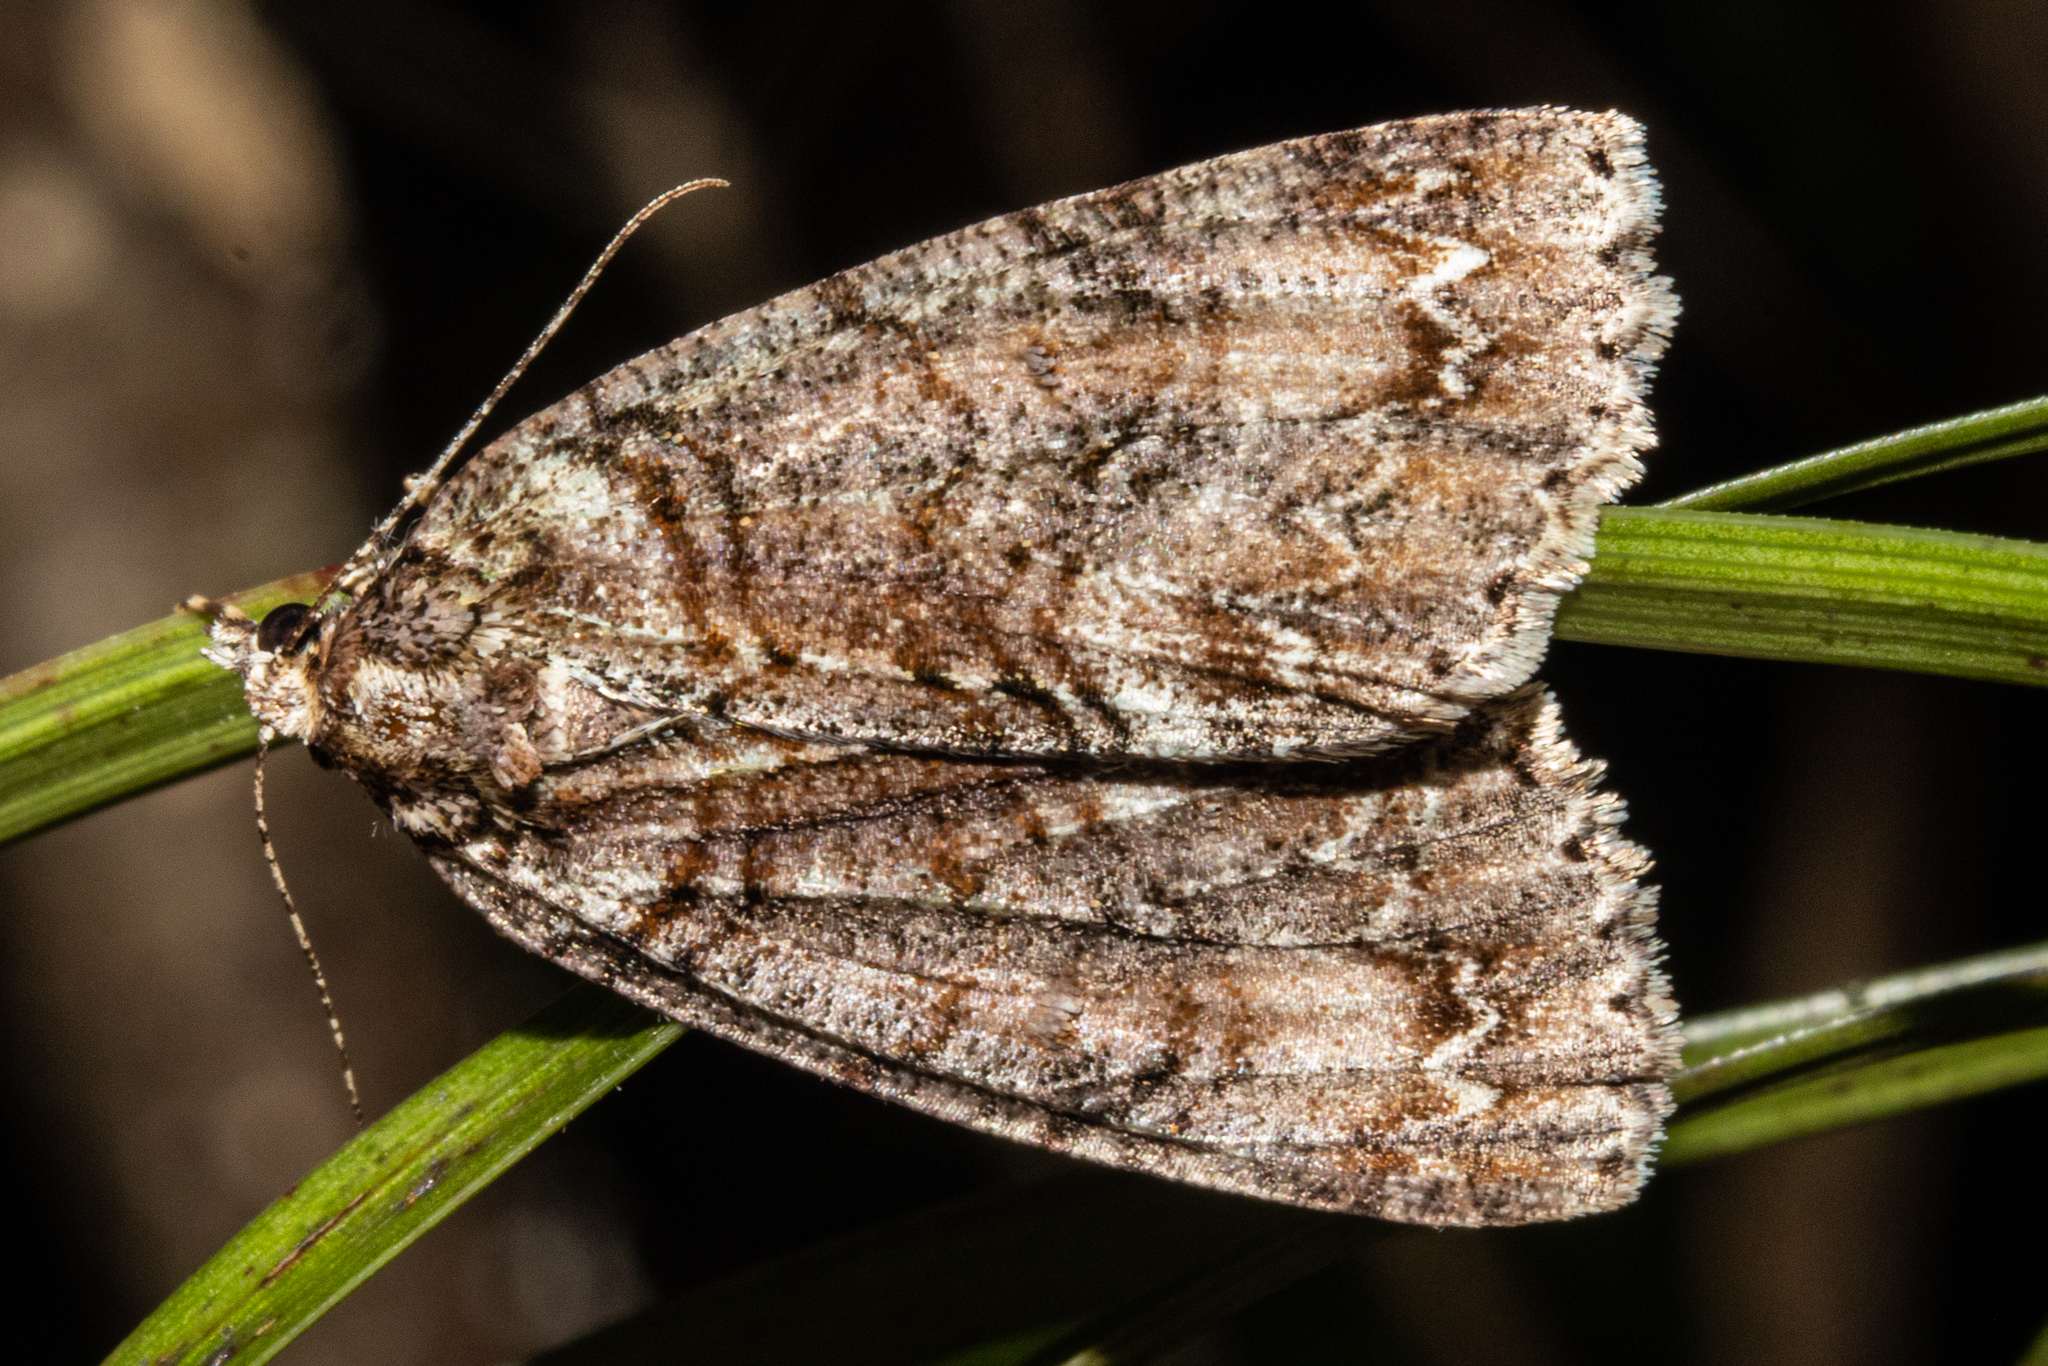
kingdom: Animalia
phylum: Arthropoda
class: Insecta
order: Lepidoptera
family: Geometridae
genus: Pseudocoremia
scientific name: Pseudocoremia suavis
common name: Common forest looper
